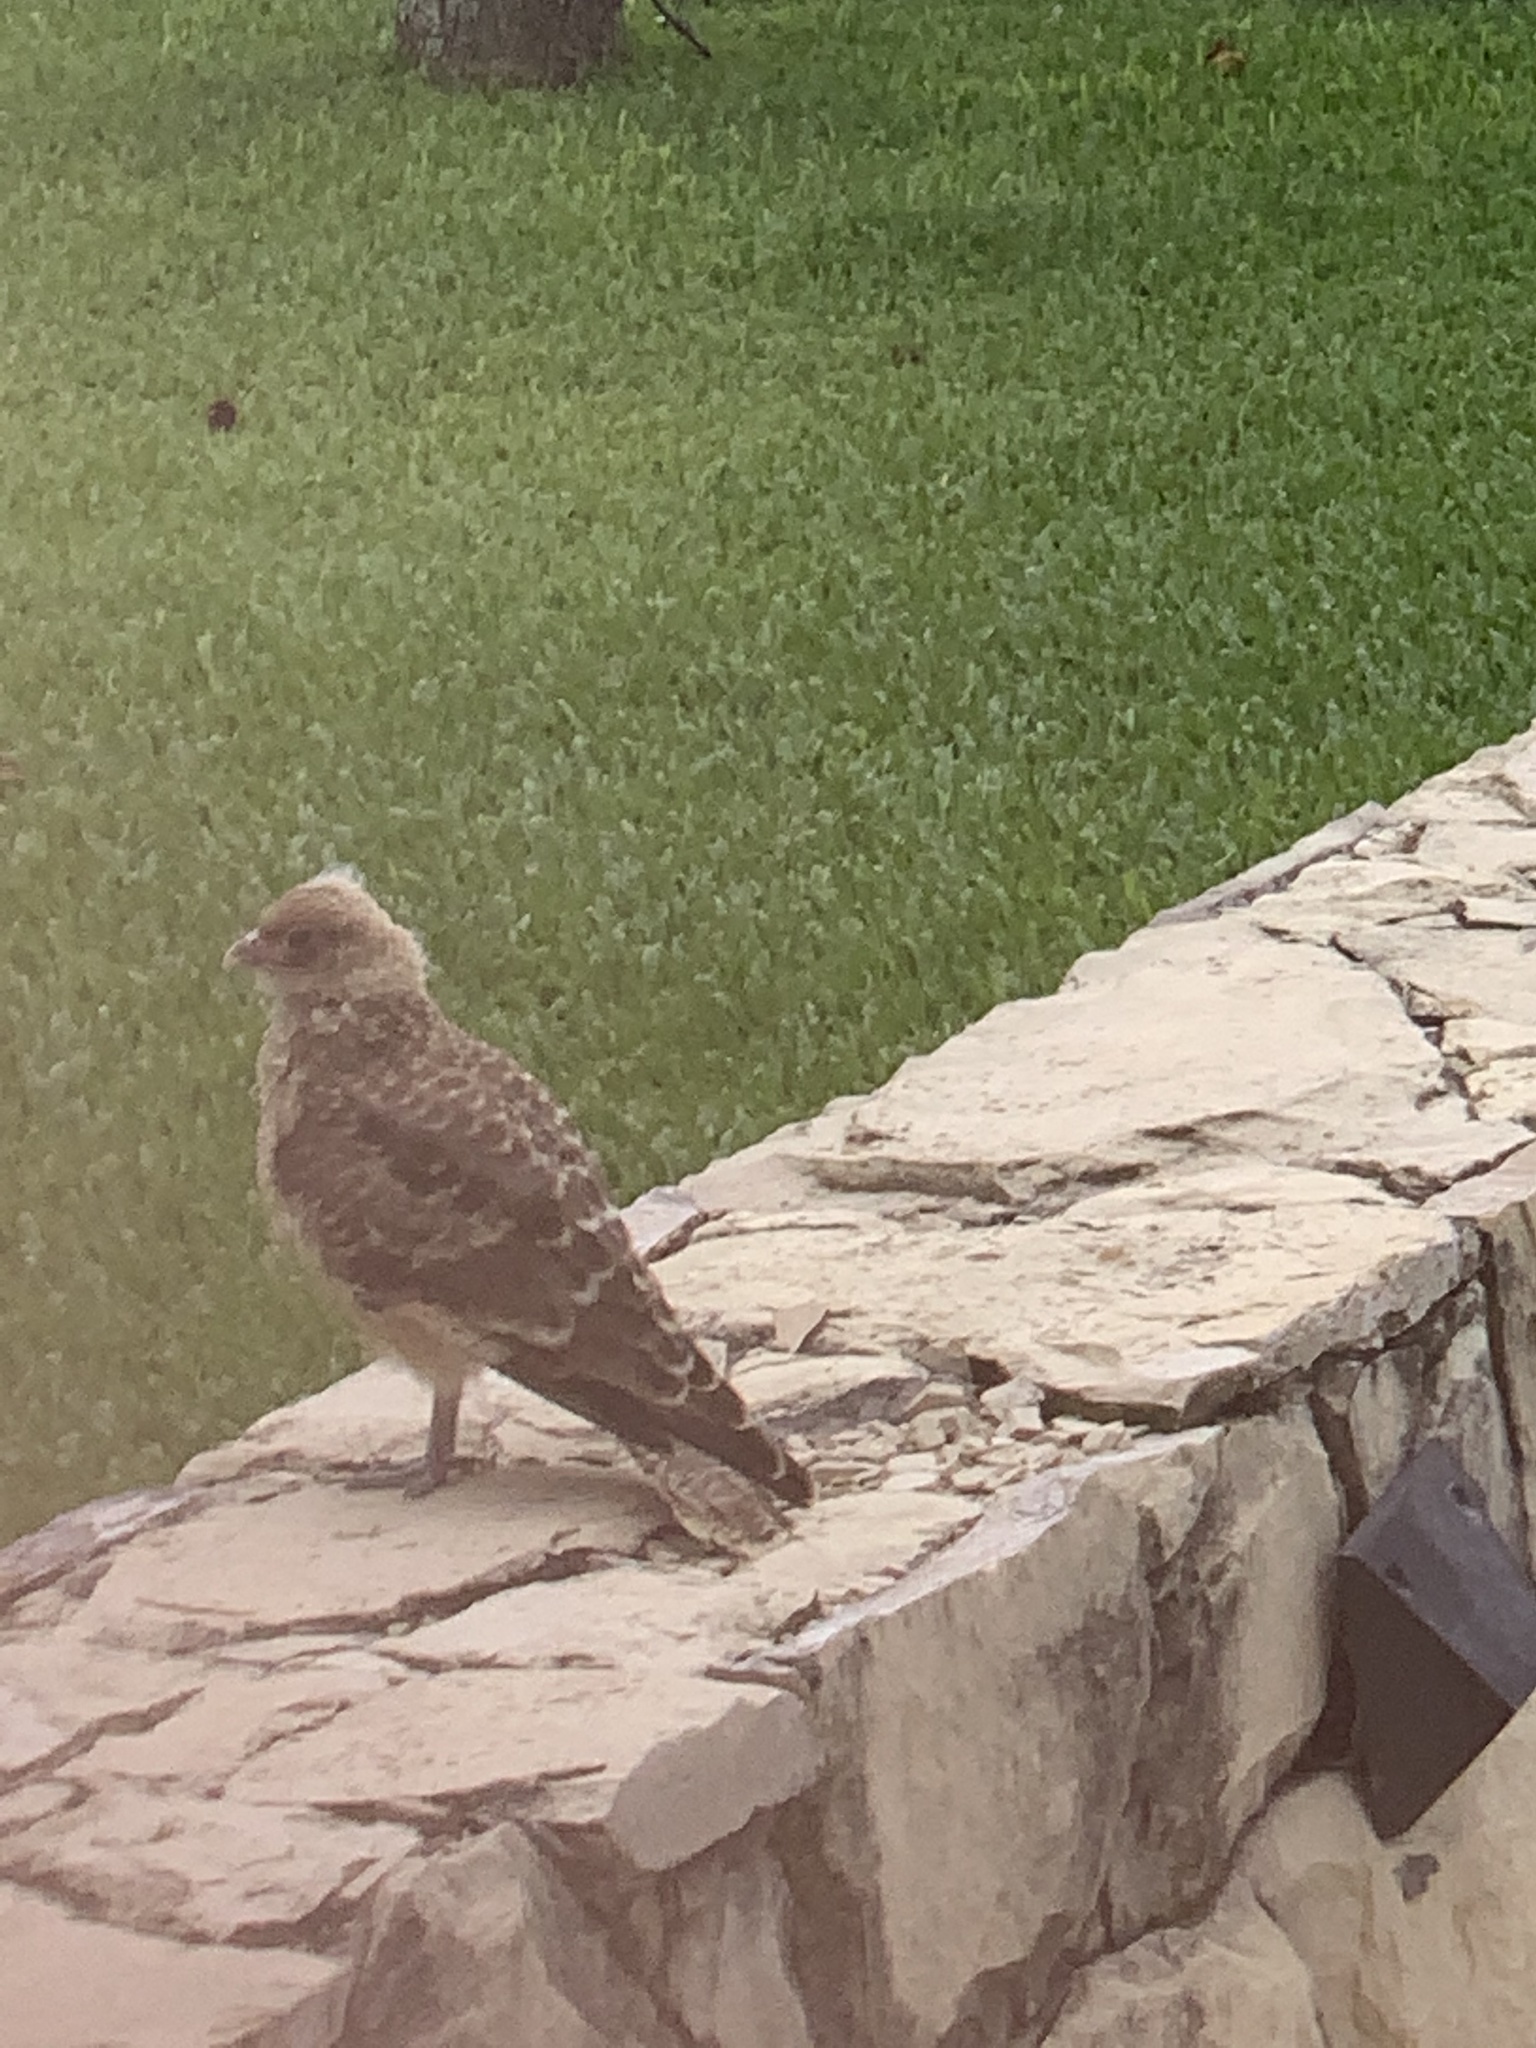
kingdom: Animalia
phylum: Chordata
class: Aves
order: Falconiformes
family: Falconidae
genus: Daptrius
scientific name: Daptrius
